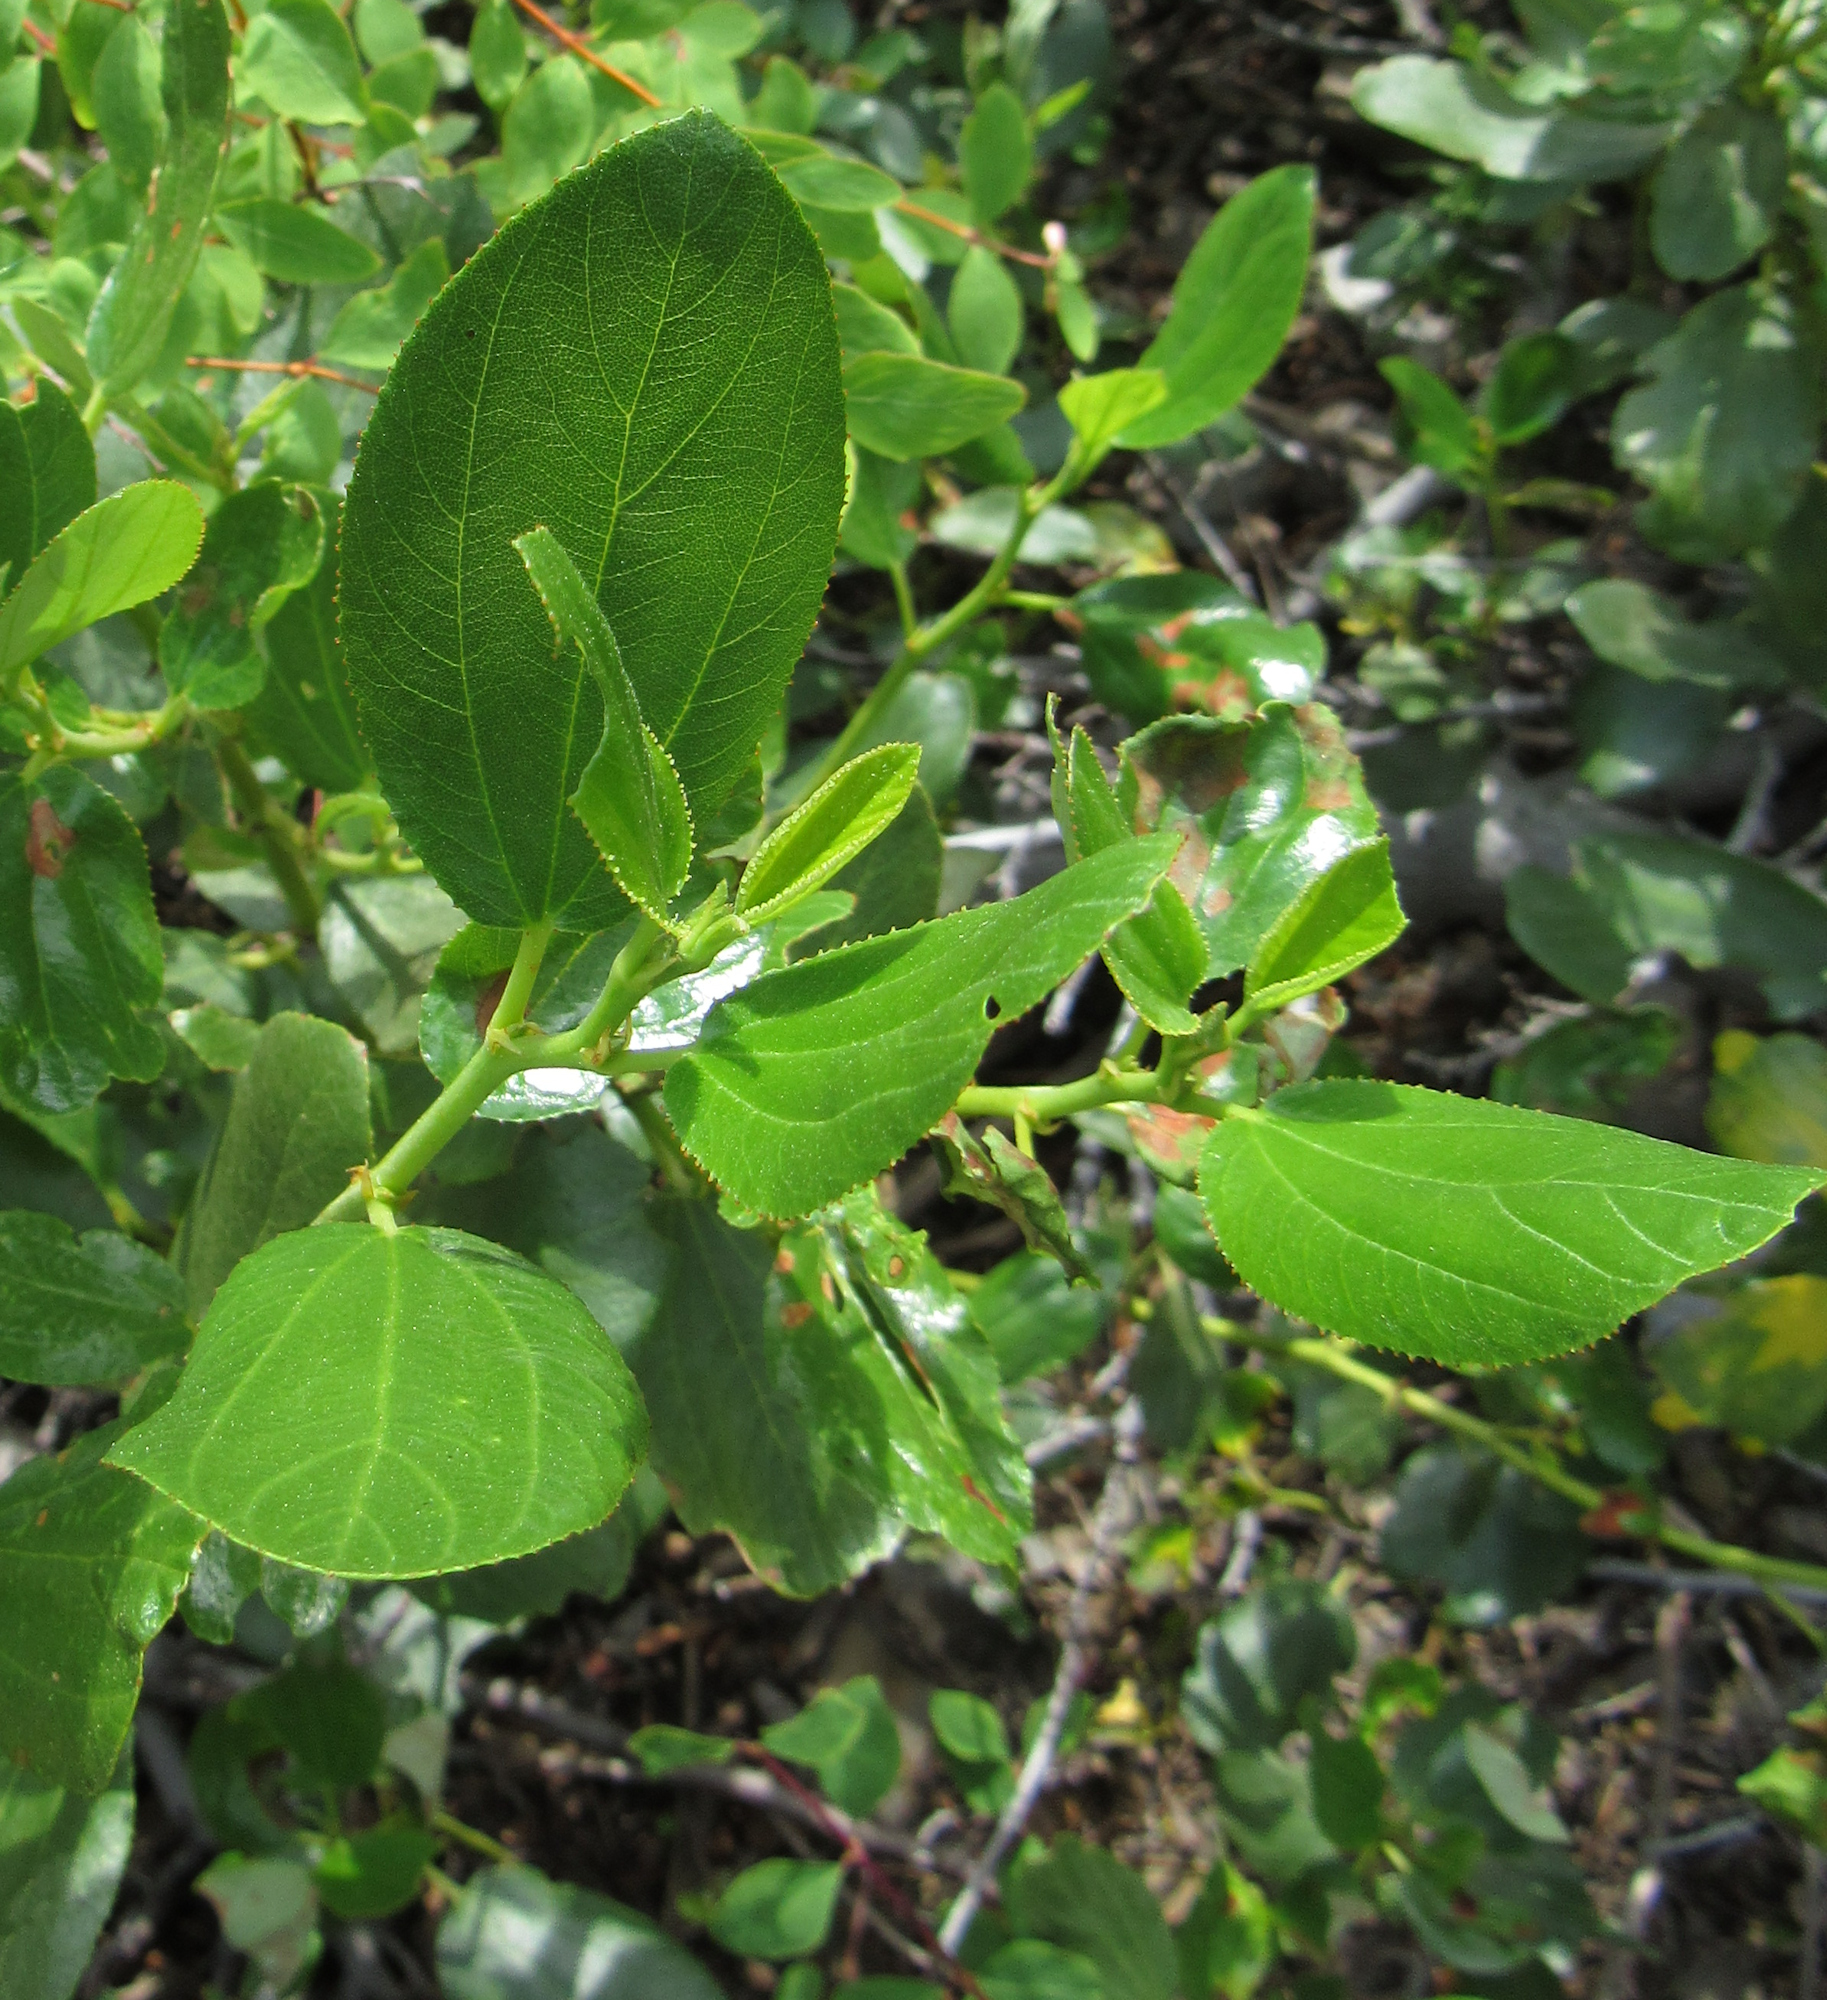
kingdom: Plantae
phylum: Tracheophyta
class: Magnoliopsida
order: Rosales
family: Rhamnaceae
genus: Ceanothus
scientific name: Ceanothus velutinus
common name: Snowbrush
